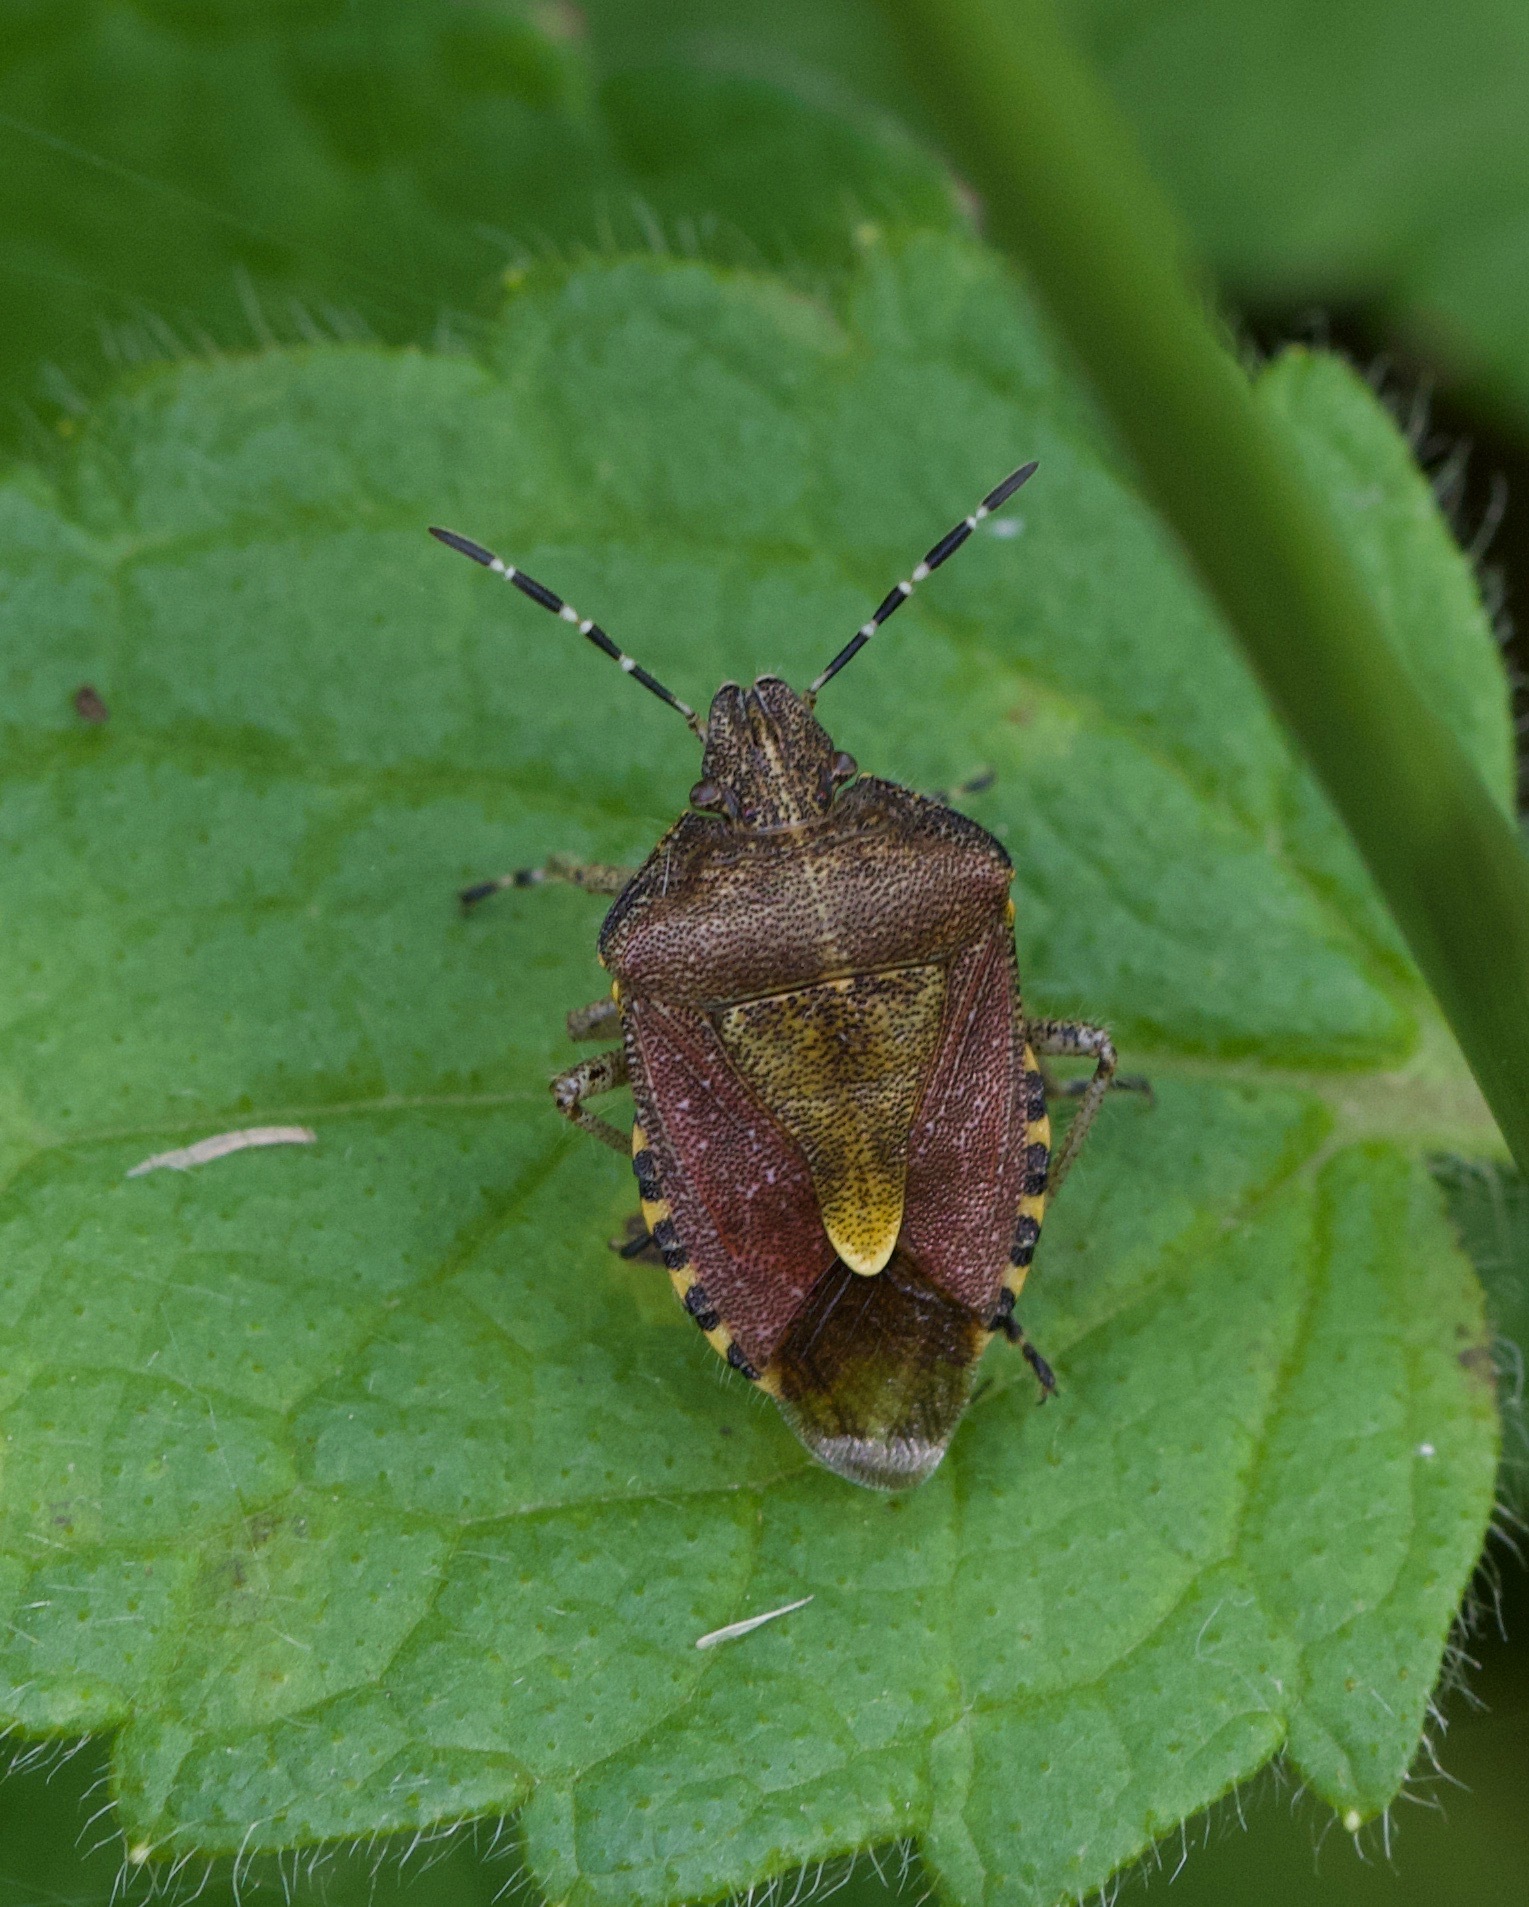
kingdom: Animalia
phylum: Arthropoda
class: Insecta
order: Hemiptera
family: Pentatomidae
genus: Dolycoris
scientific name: Dolycoris baccarum
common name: Sloe bug
